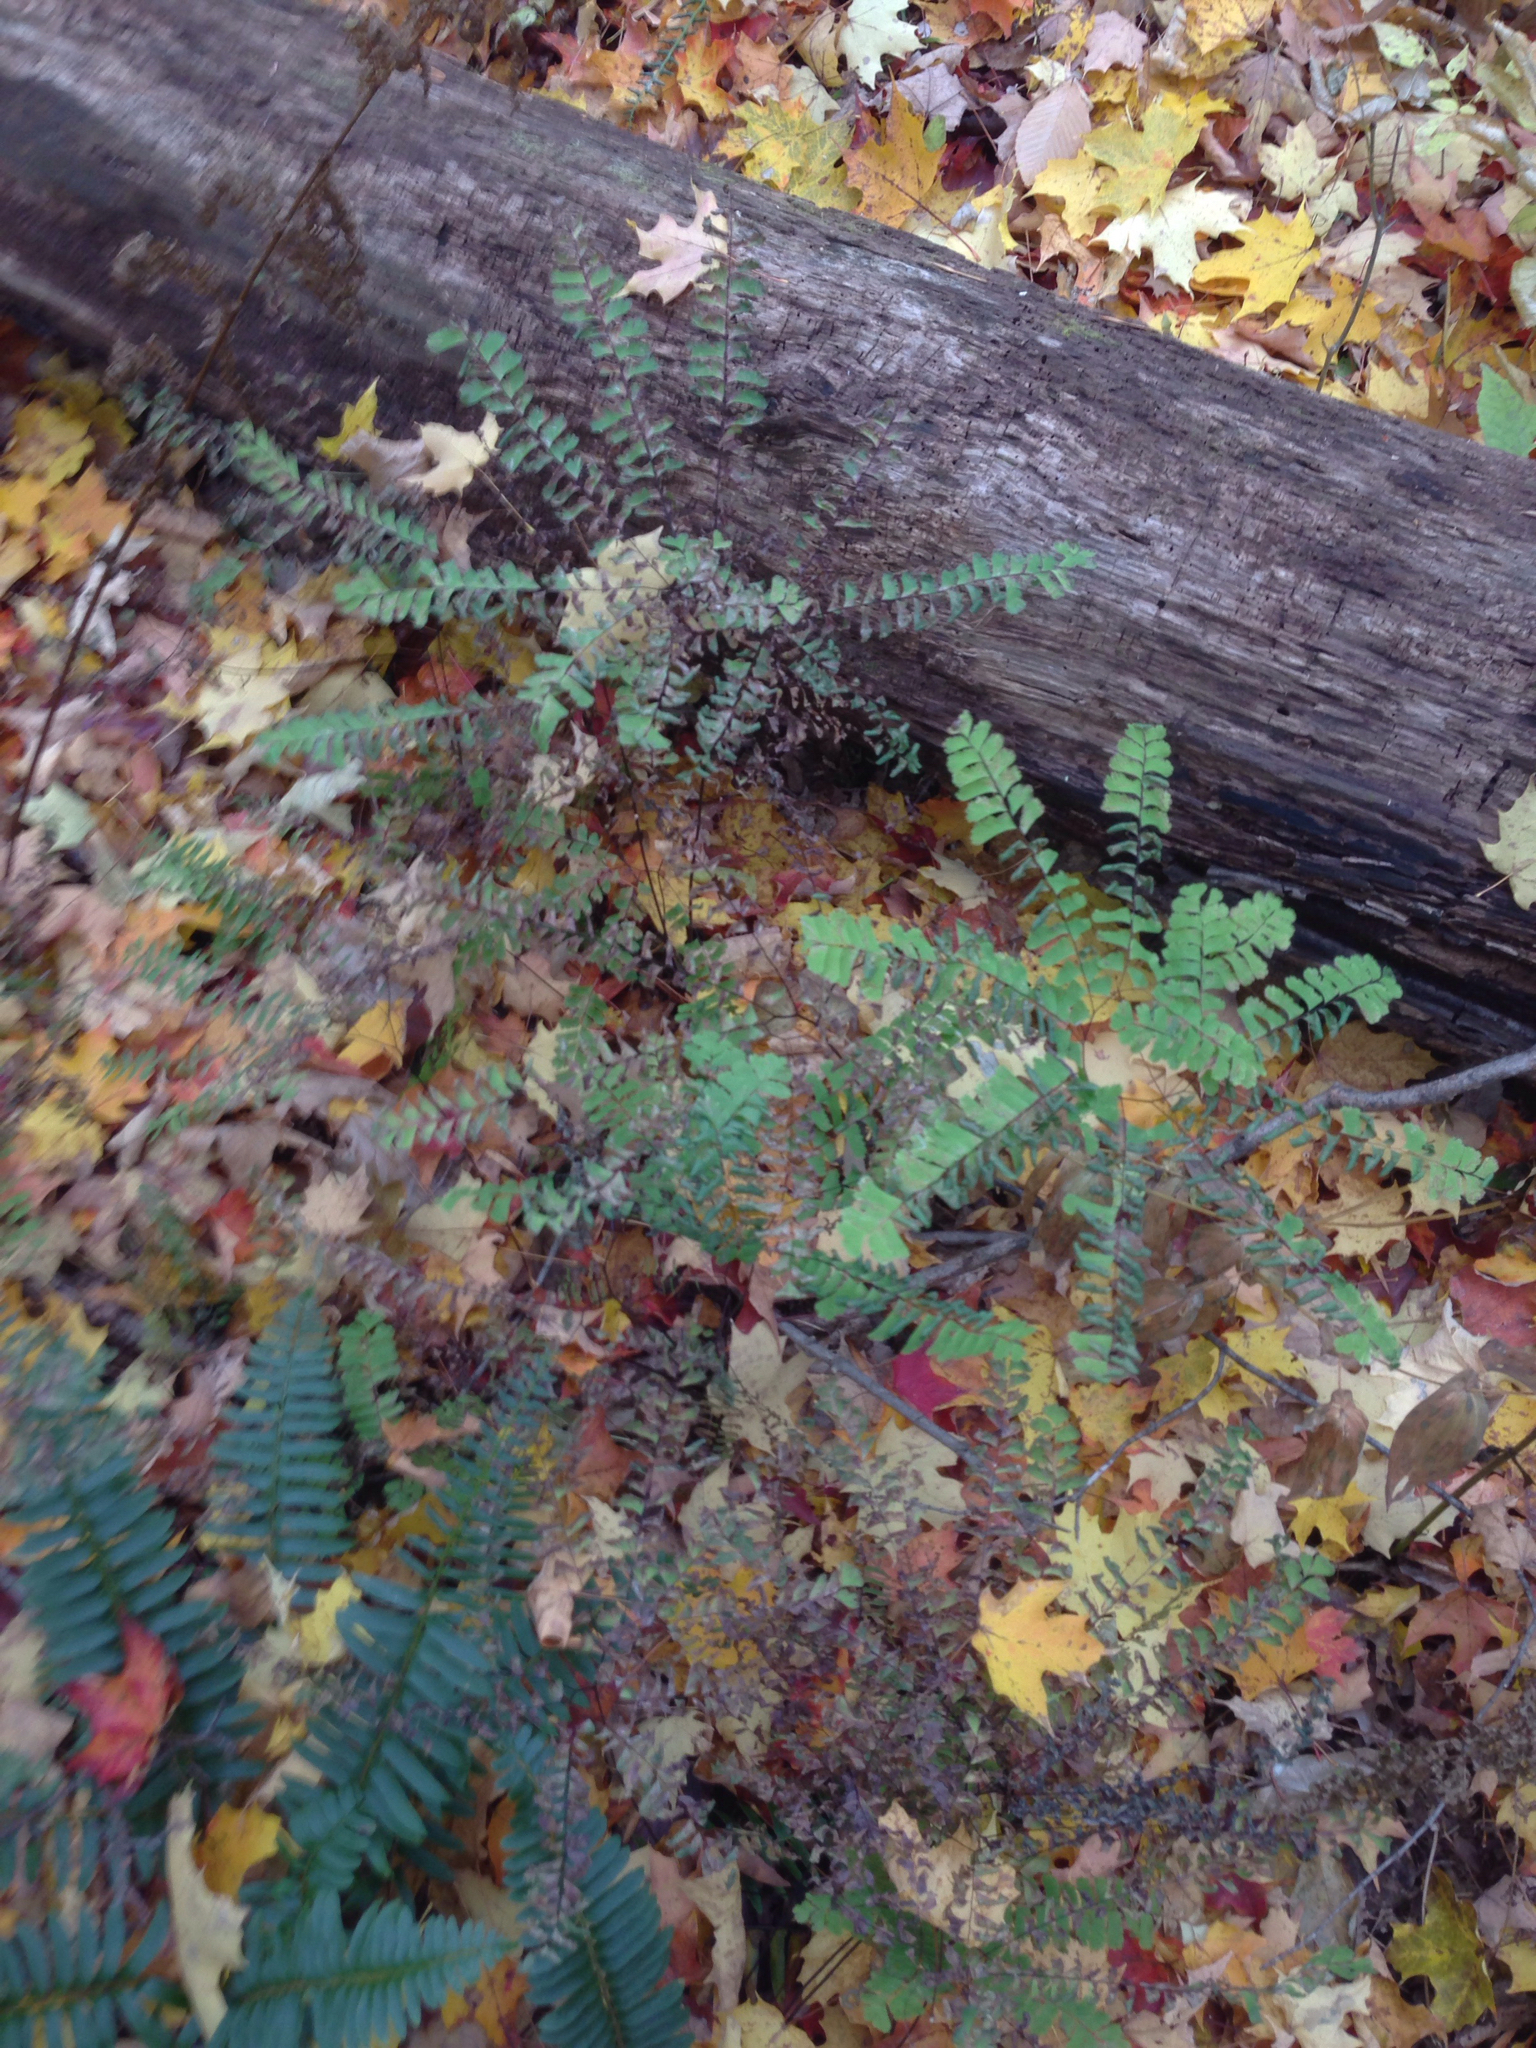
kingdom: Plantae
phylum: Tracheophyta
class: Polypodiopsida
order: Polypodiales
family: Pteridaceae
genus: Adiantum
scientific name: Adiantum pedatum
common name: Five-finger fern
